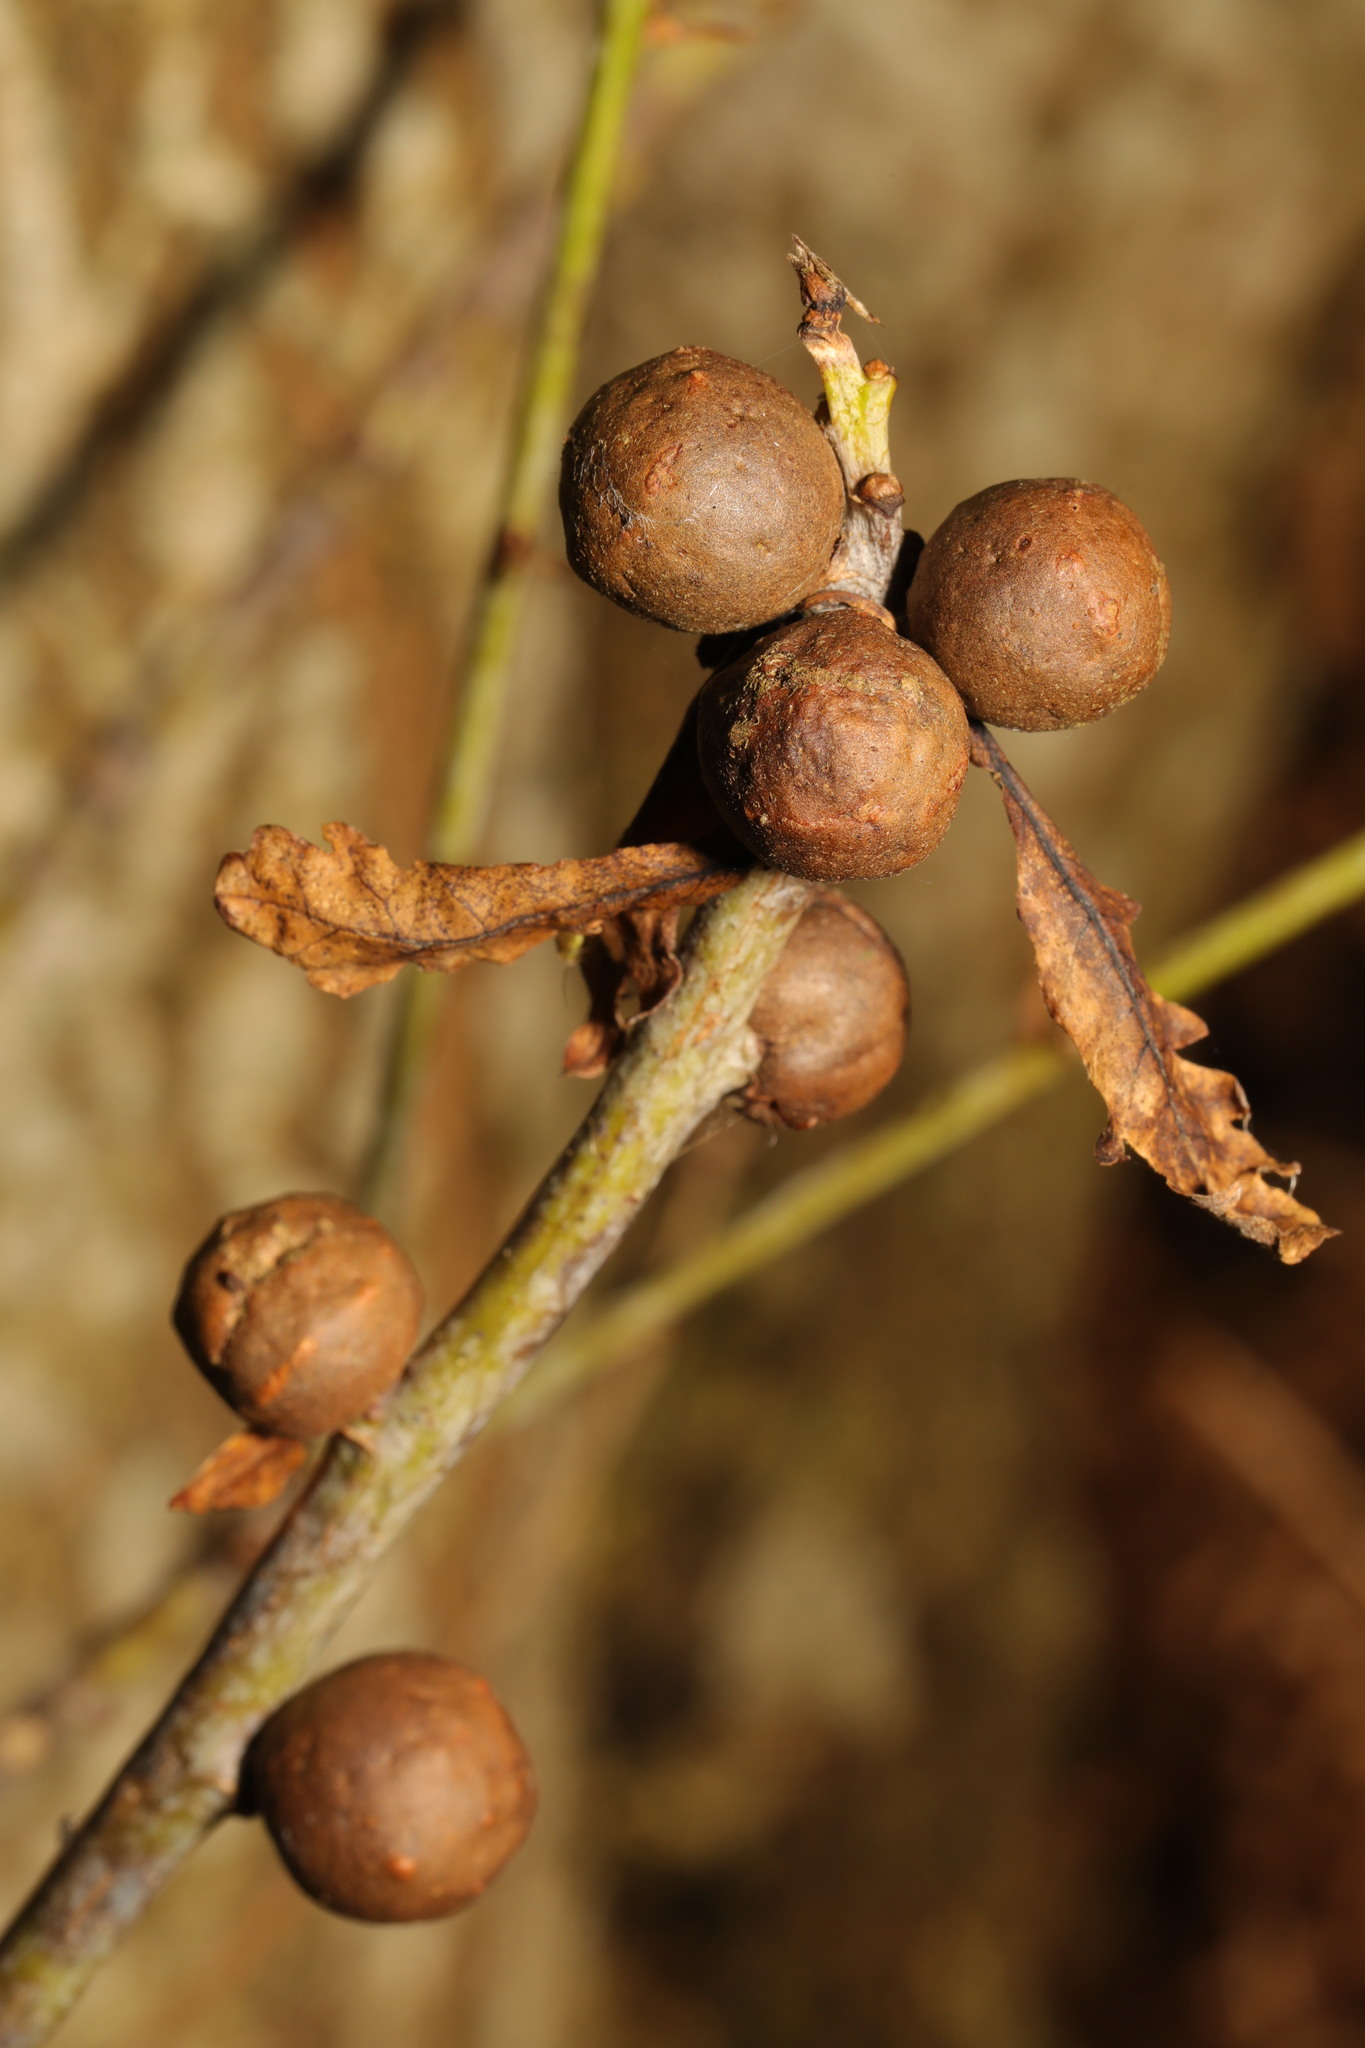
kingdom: Animalia
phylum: Arthropoda
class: Insecta
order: Hymenoptera
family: Cynipidae
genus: Andricus
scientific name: Andricus kollari
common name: Marble gall
